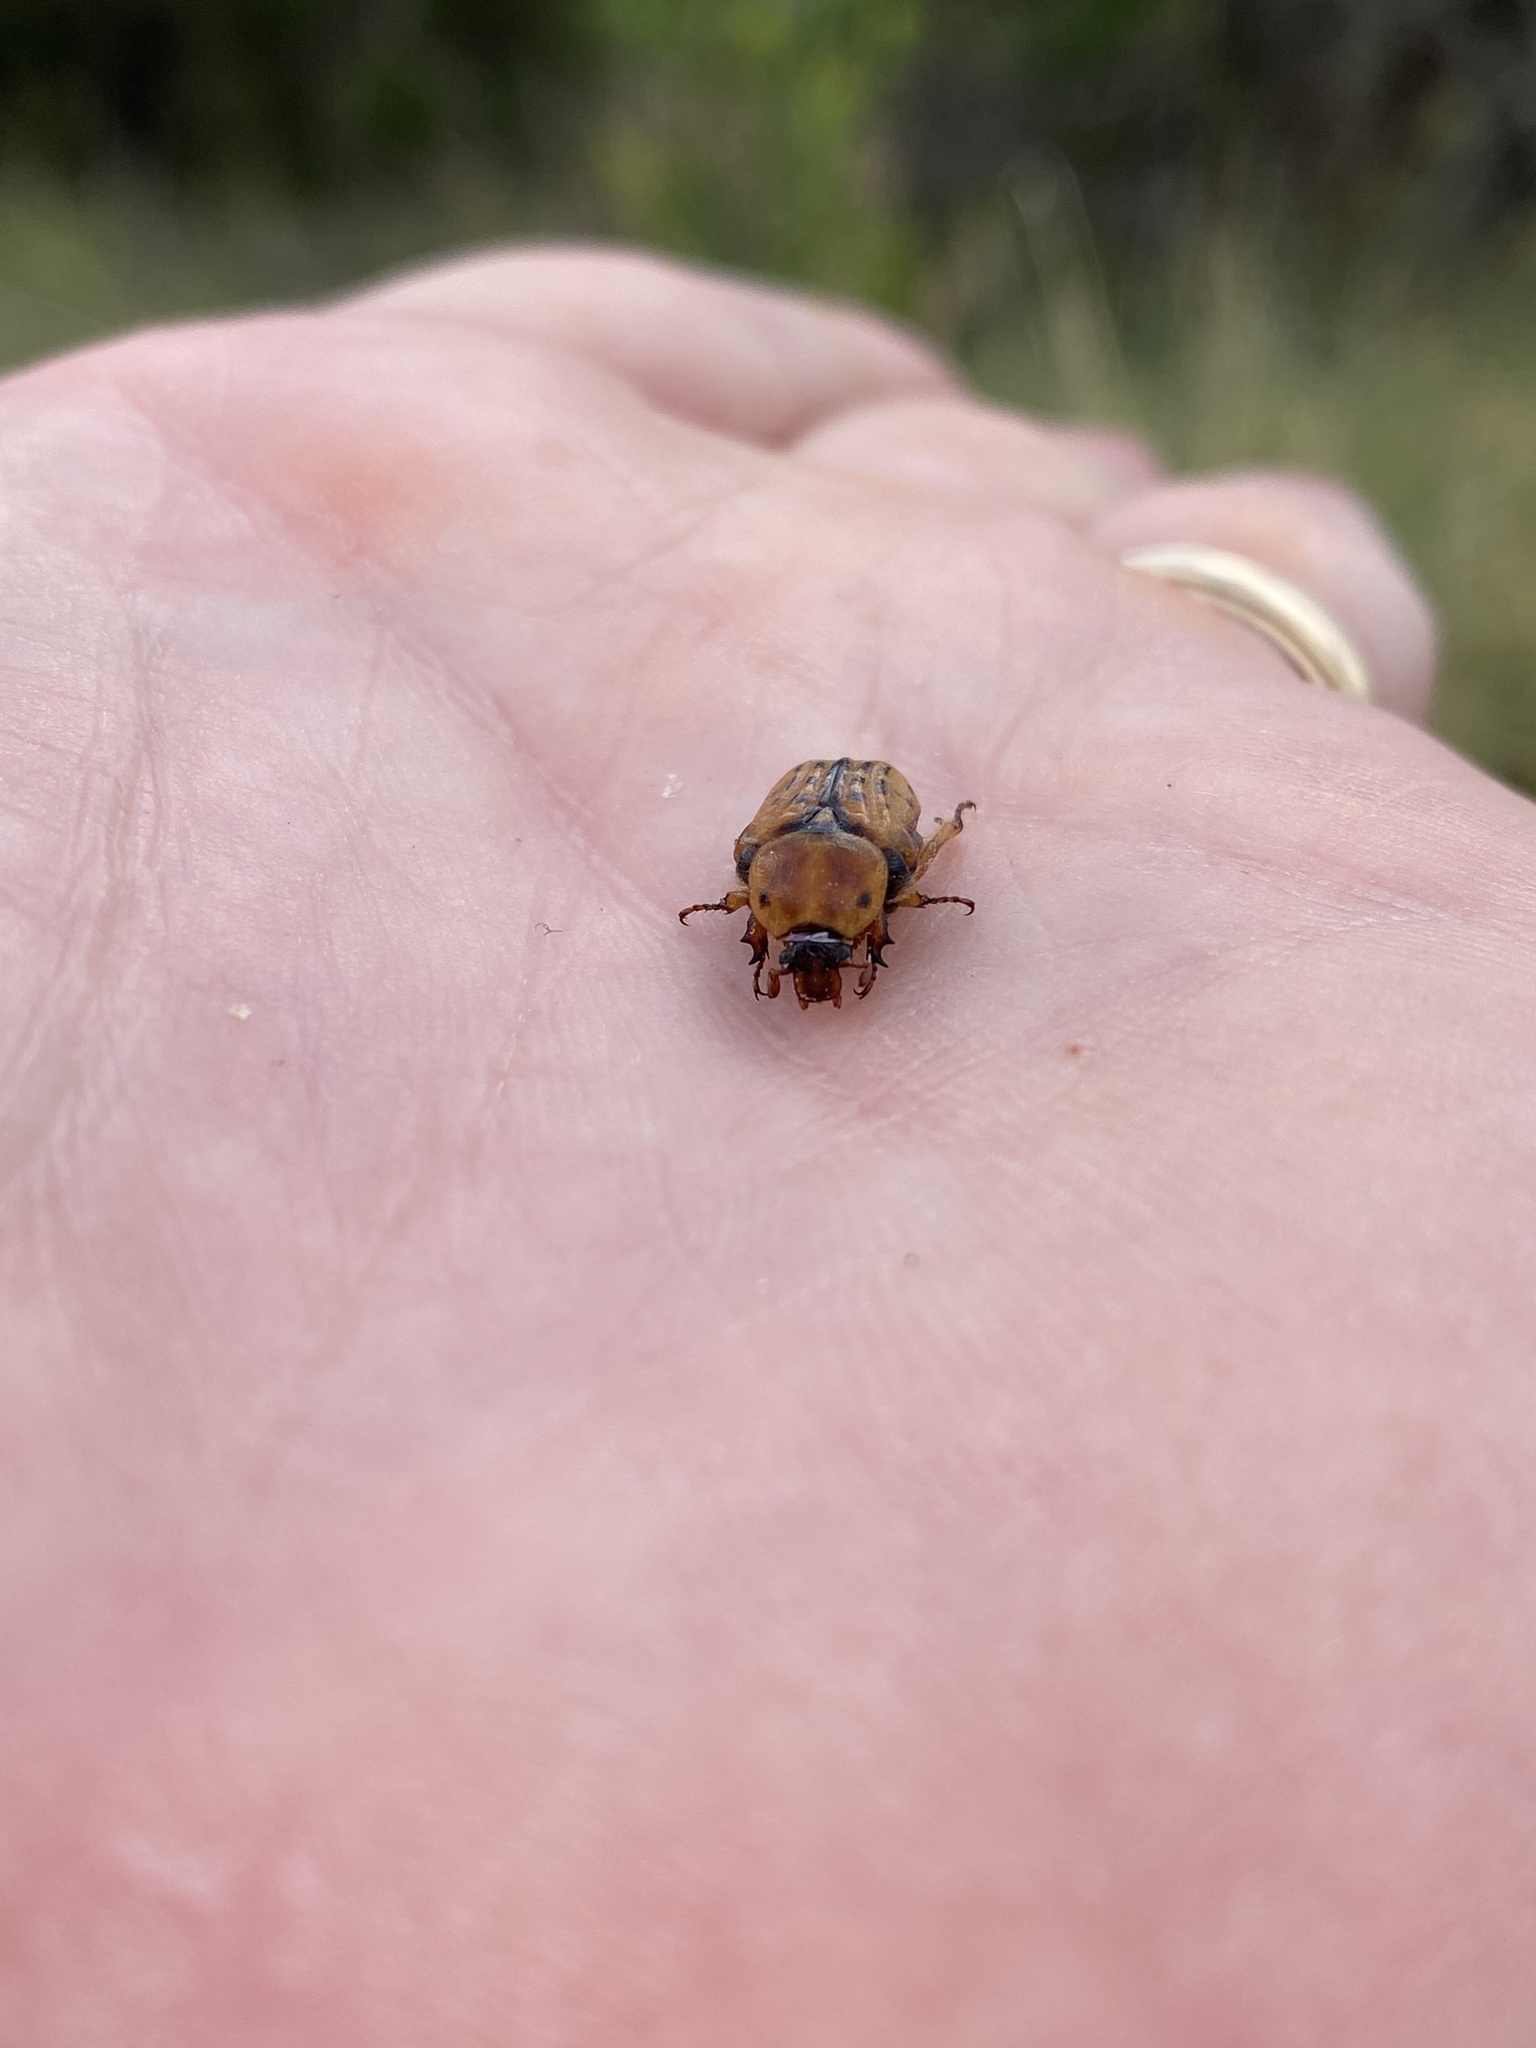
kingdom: Animalia
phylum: Arthropoda
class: Insecta
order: Coleoptera
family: Scarabaeidae
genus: Euphoria
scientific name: Euphoria kernii
